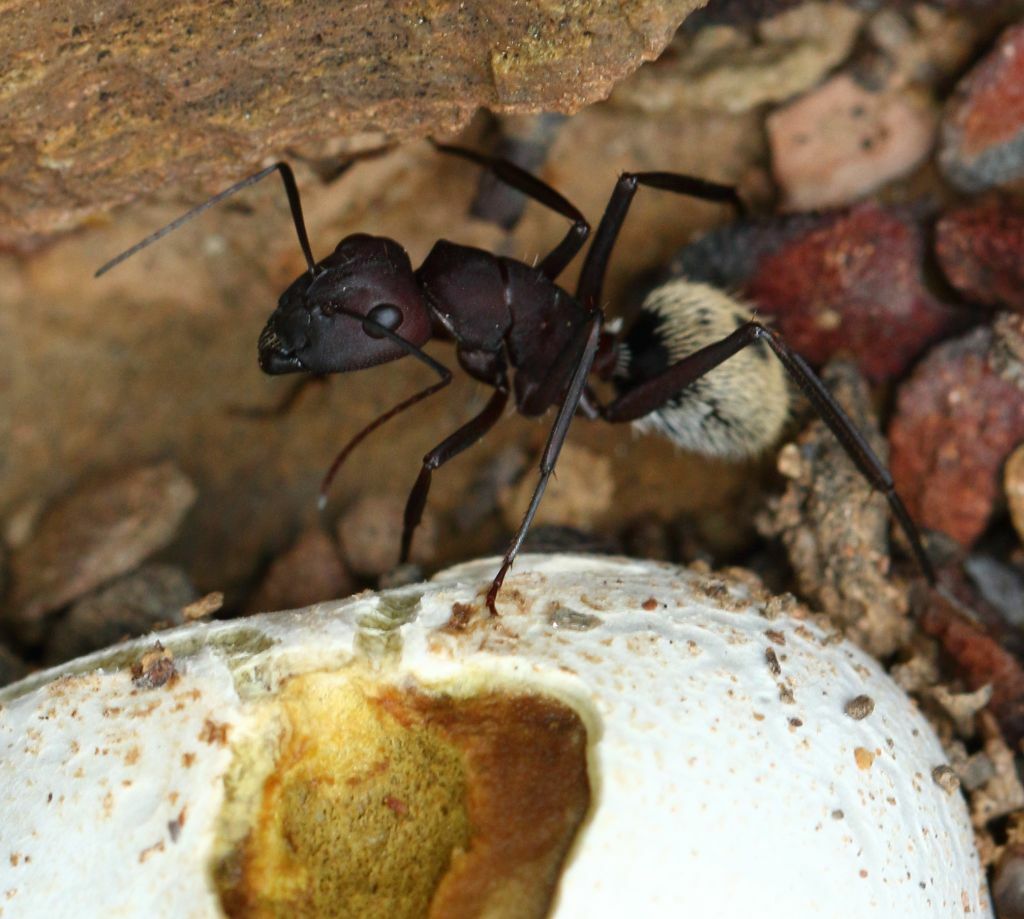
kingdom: Animalia
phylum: Arthropoda
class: Insecta
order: Hymenoptera
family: Formicidae
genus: Camponotus
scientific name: Camponotus storeatus
